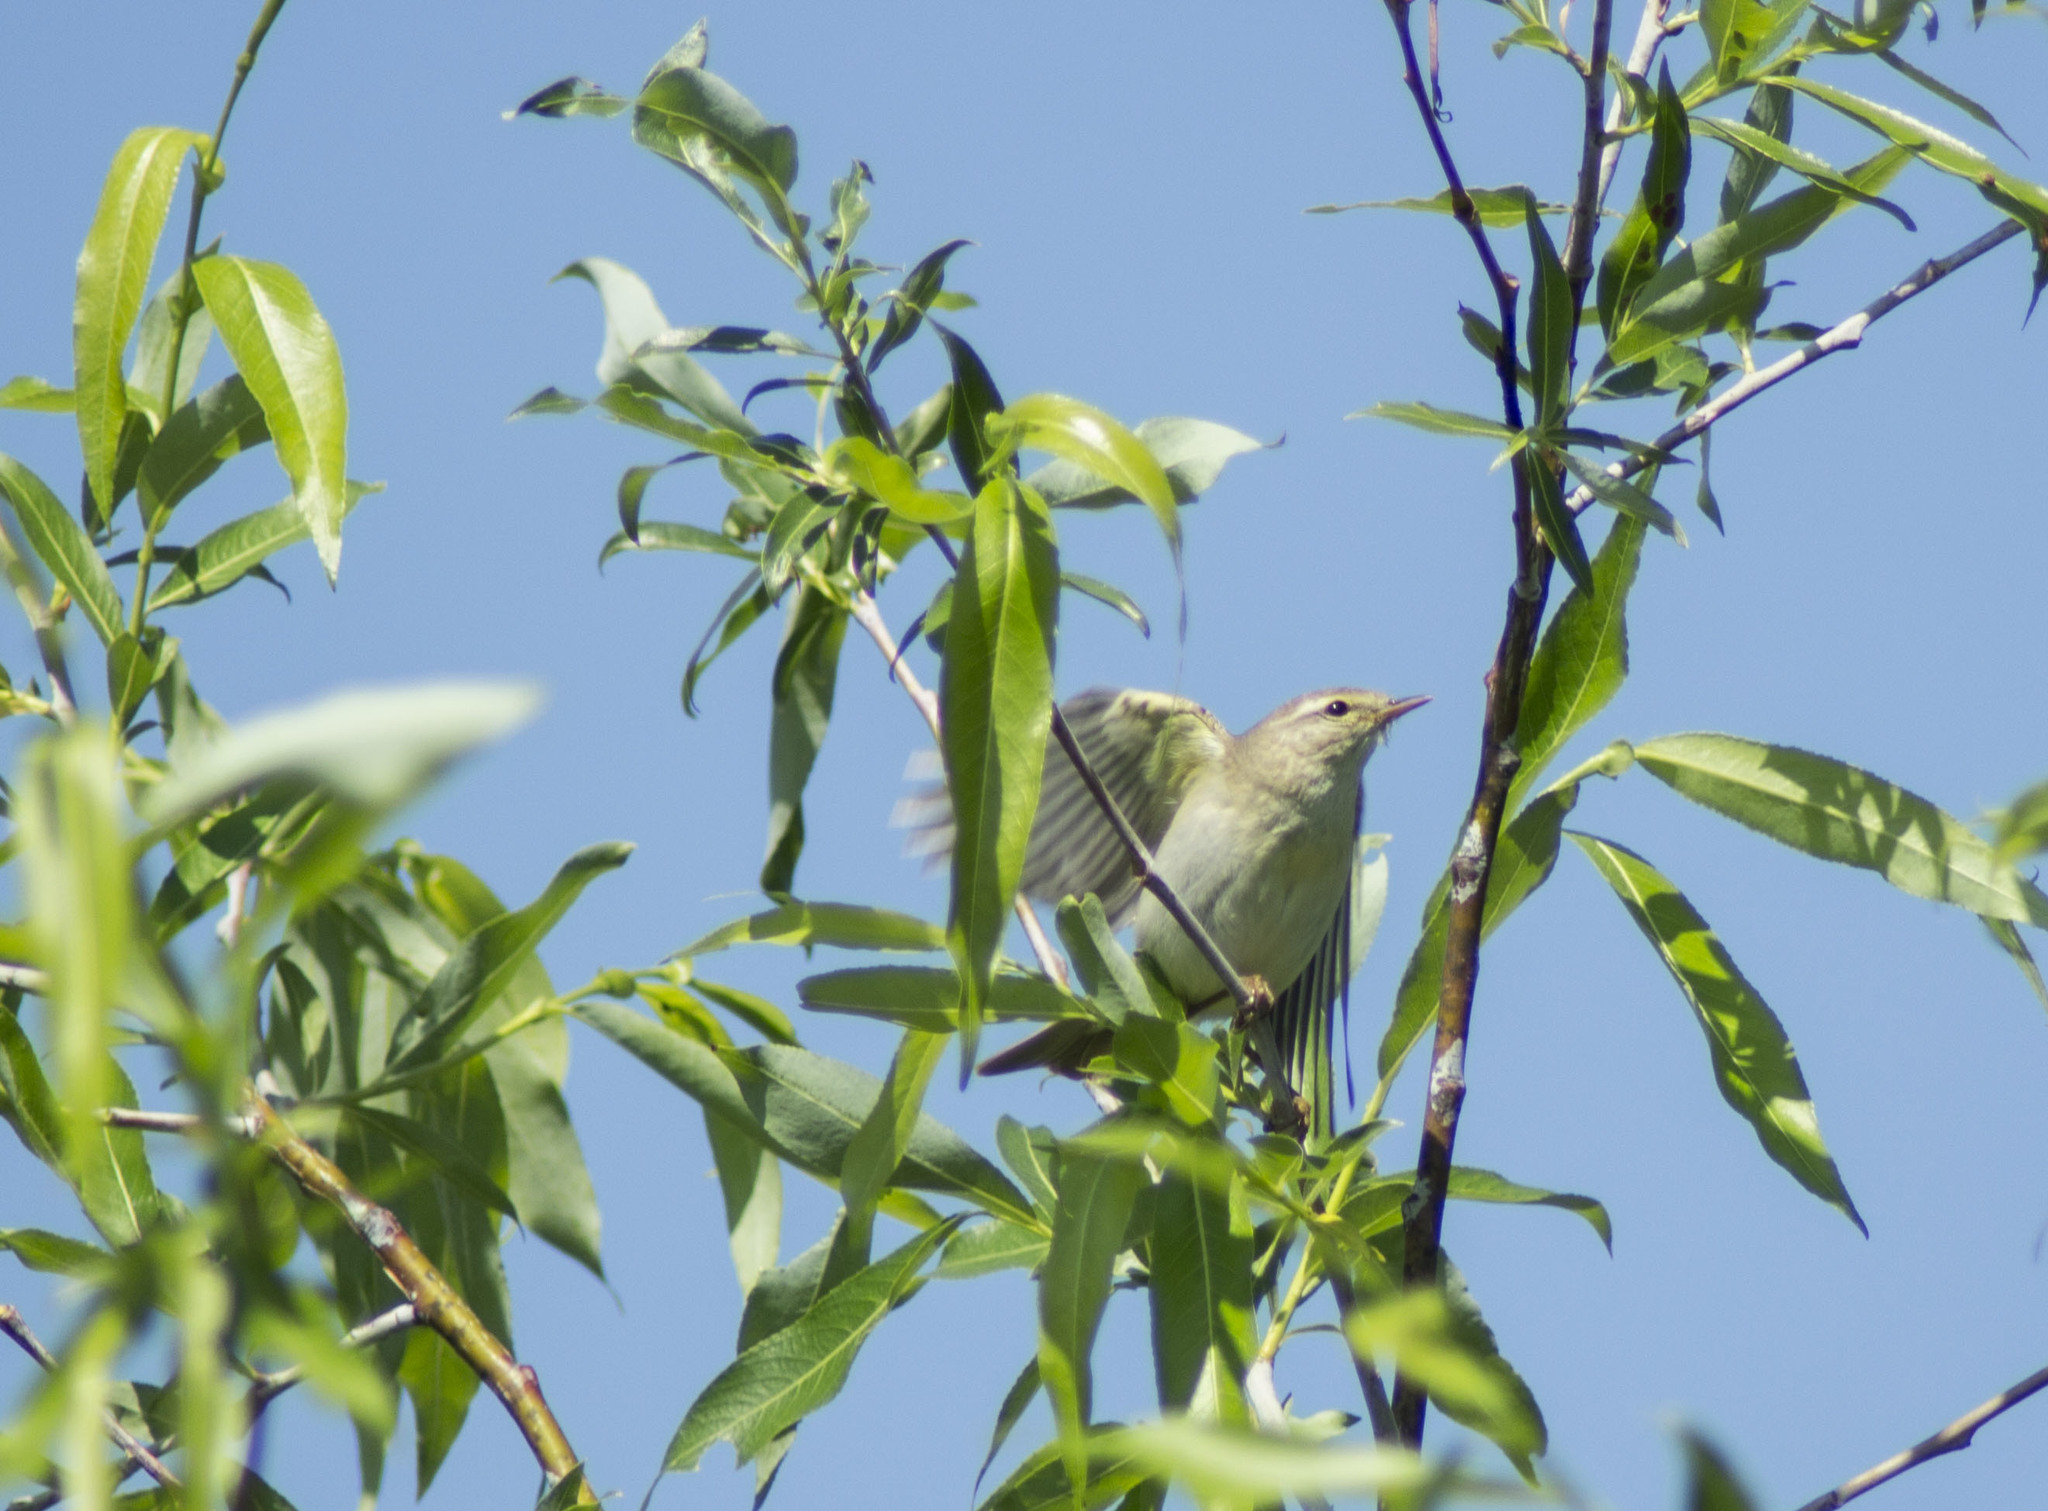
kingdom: Animalia
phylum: Chordata
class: Aves
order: Passeriformes
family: Phylloscopidae
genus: Phylloscopus
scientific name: Phylloscopus trochilus
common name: Willow warbler
